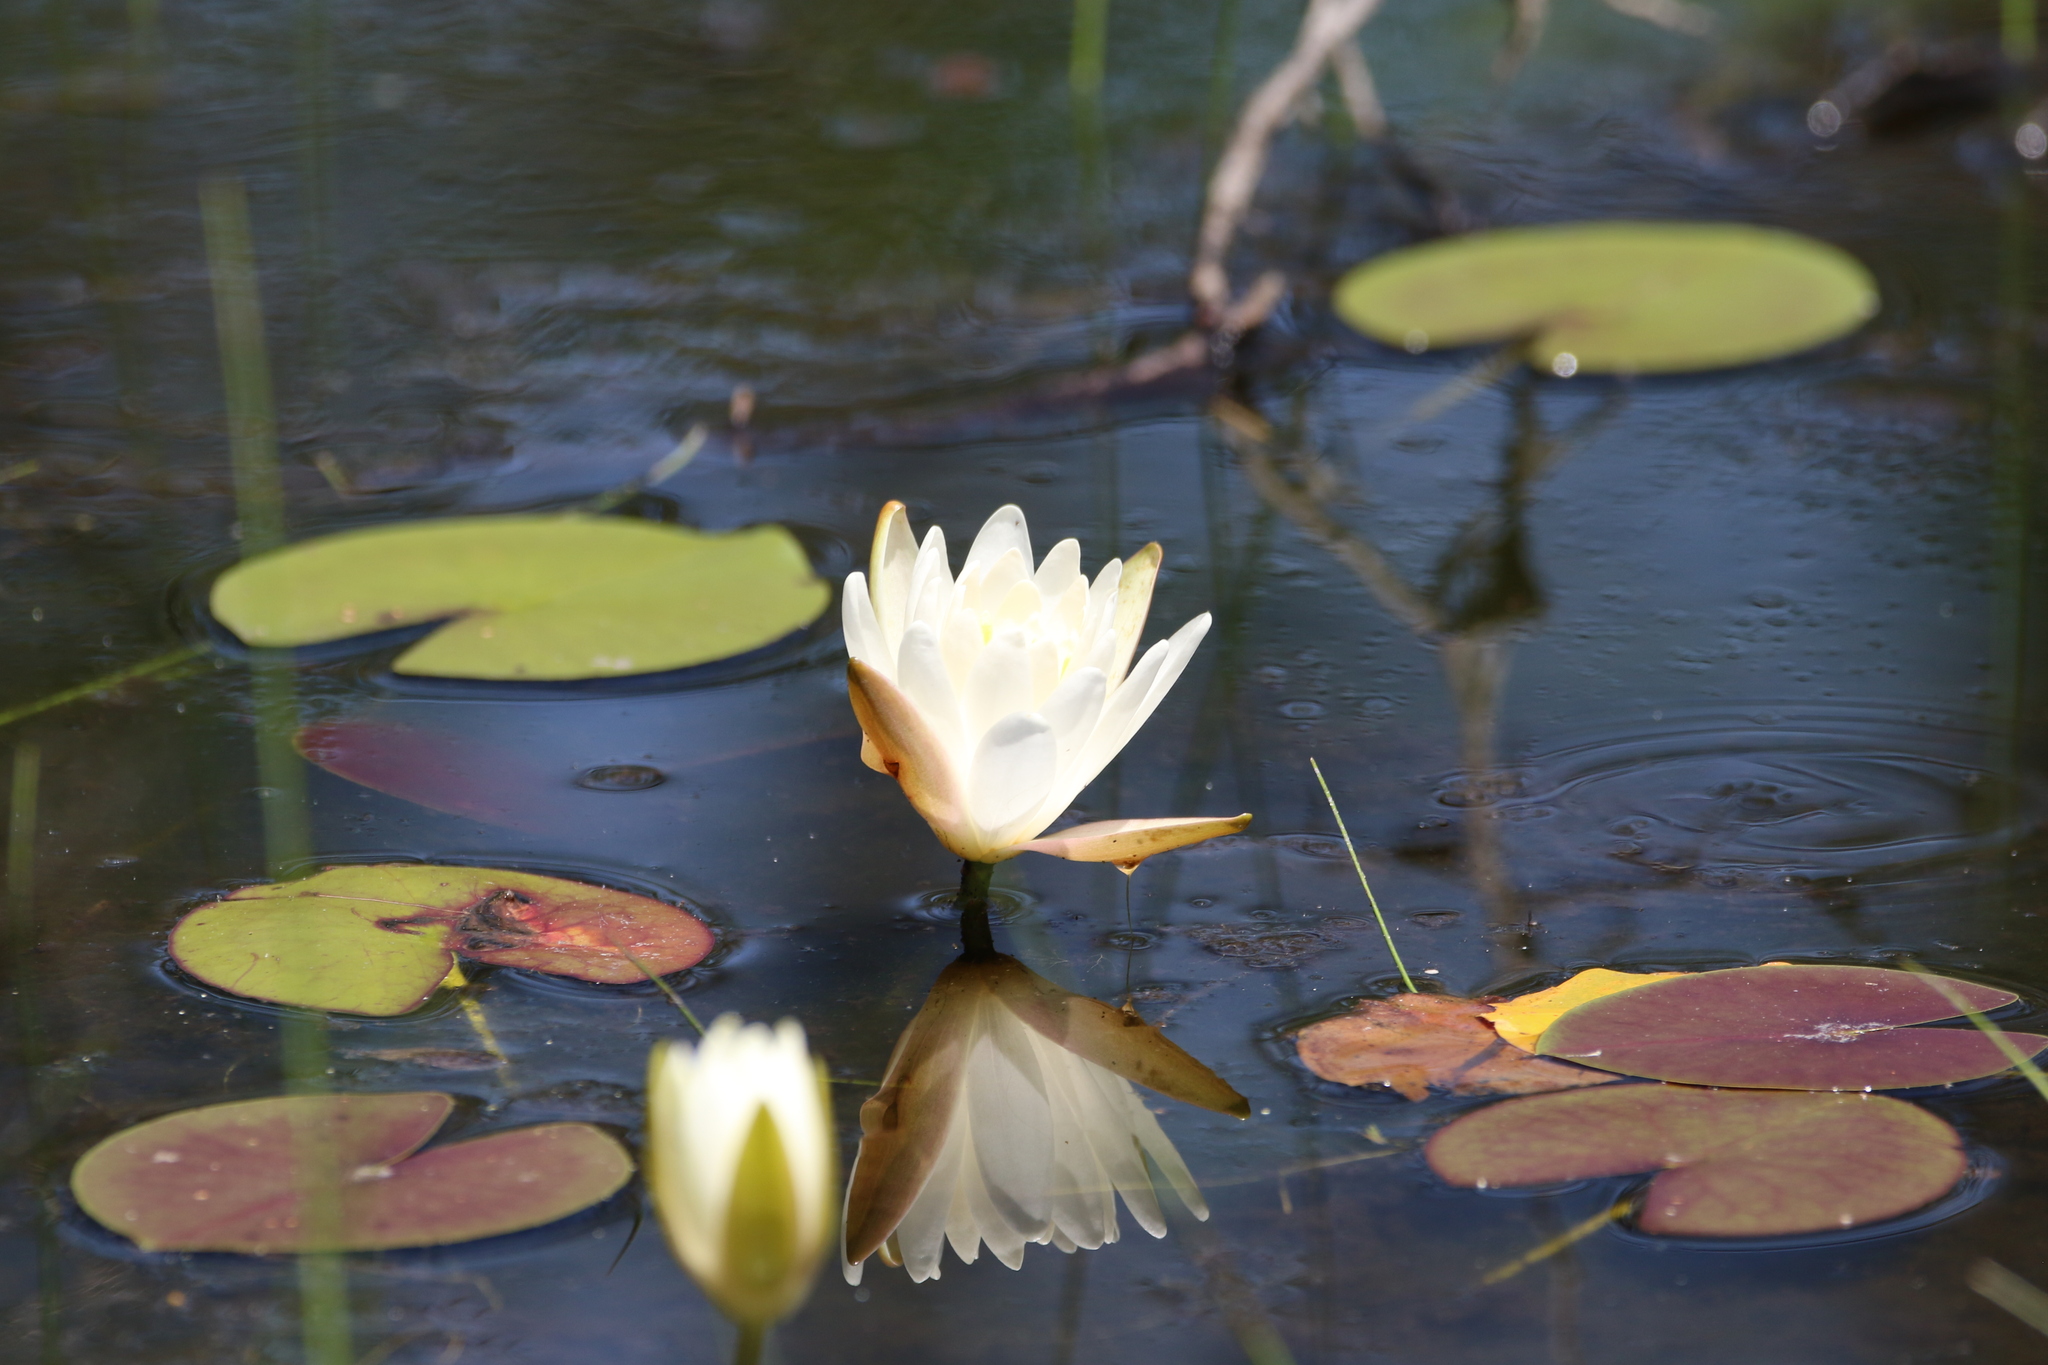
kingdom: Plantae
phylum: Tracheophyta
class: Magnoliopsida
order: Nymphaeales
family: Nymphaeaceae
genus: Nymphaea
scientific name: Nymphaea odorata
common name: Fragrant water-lily
